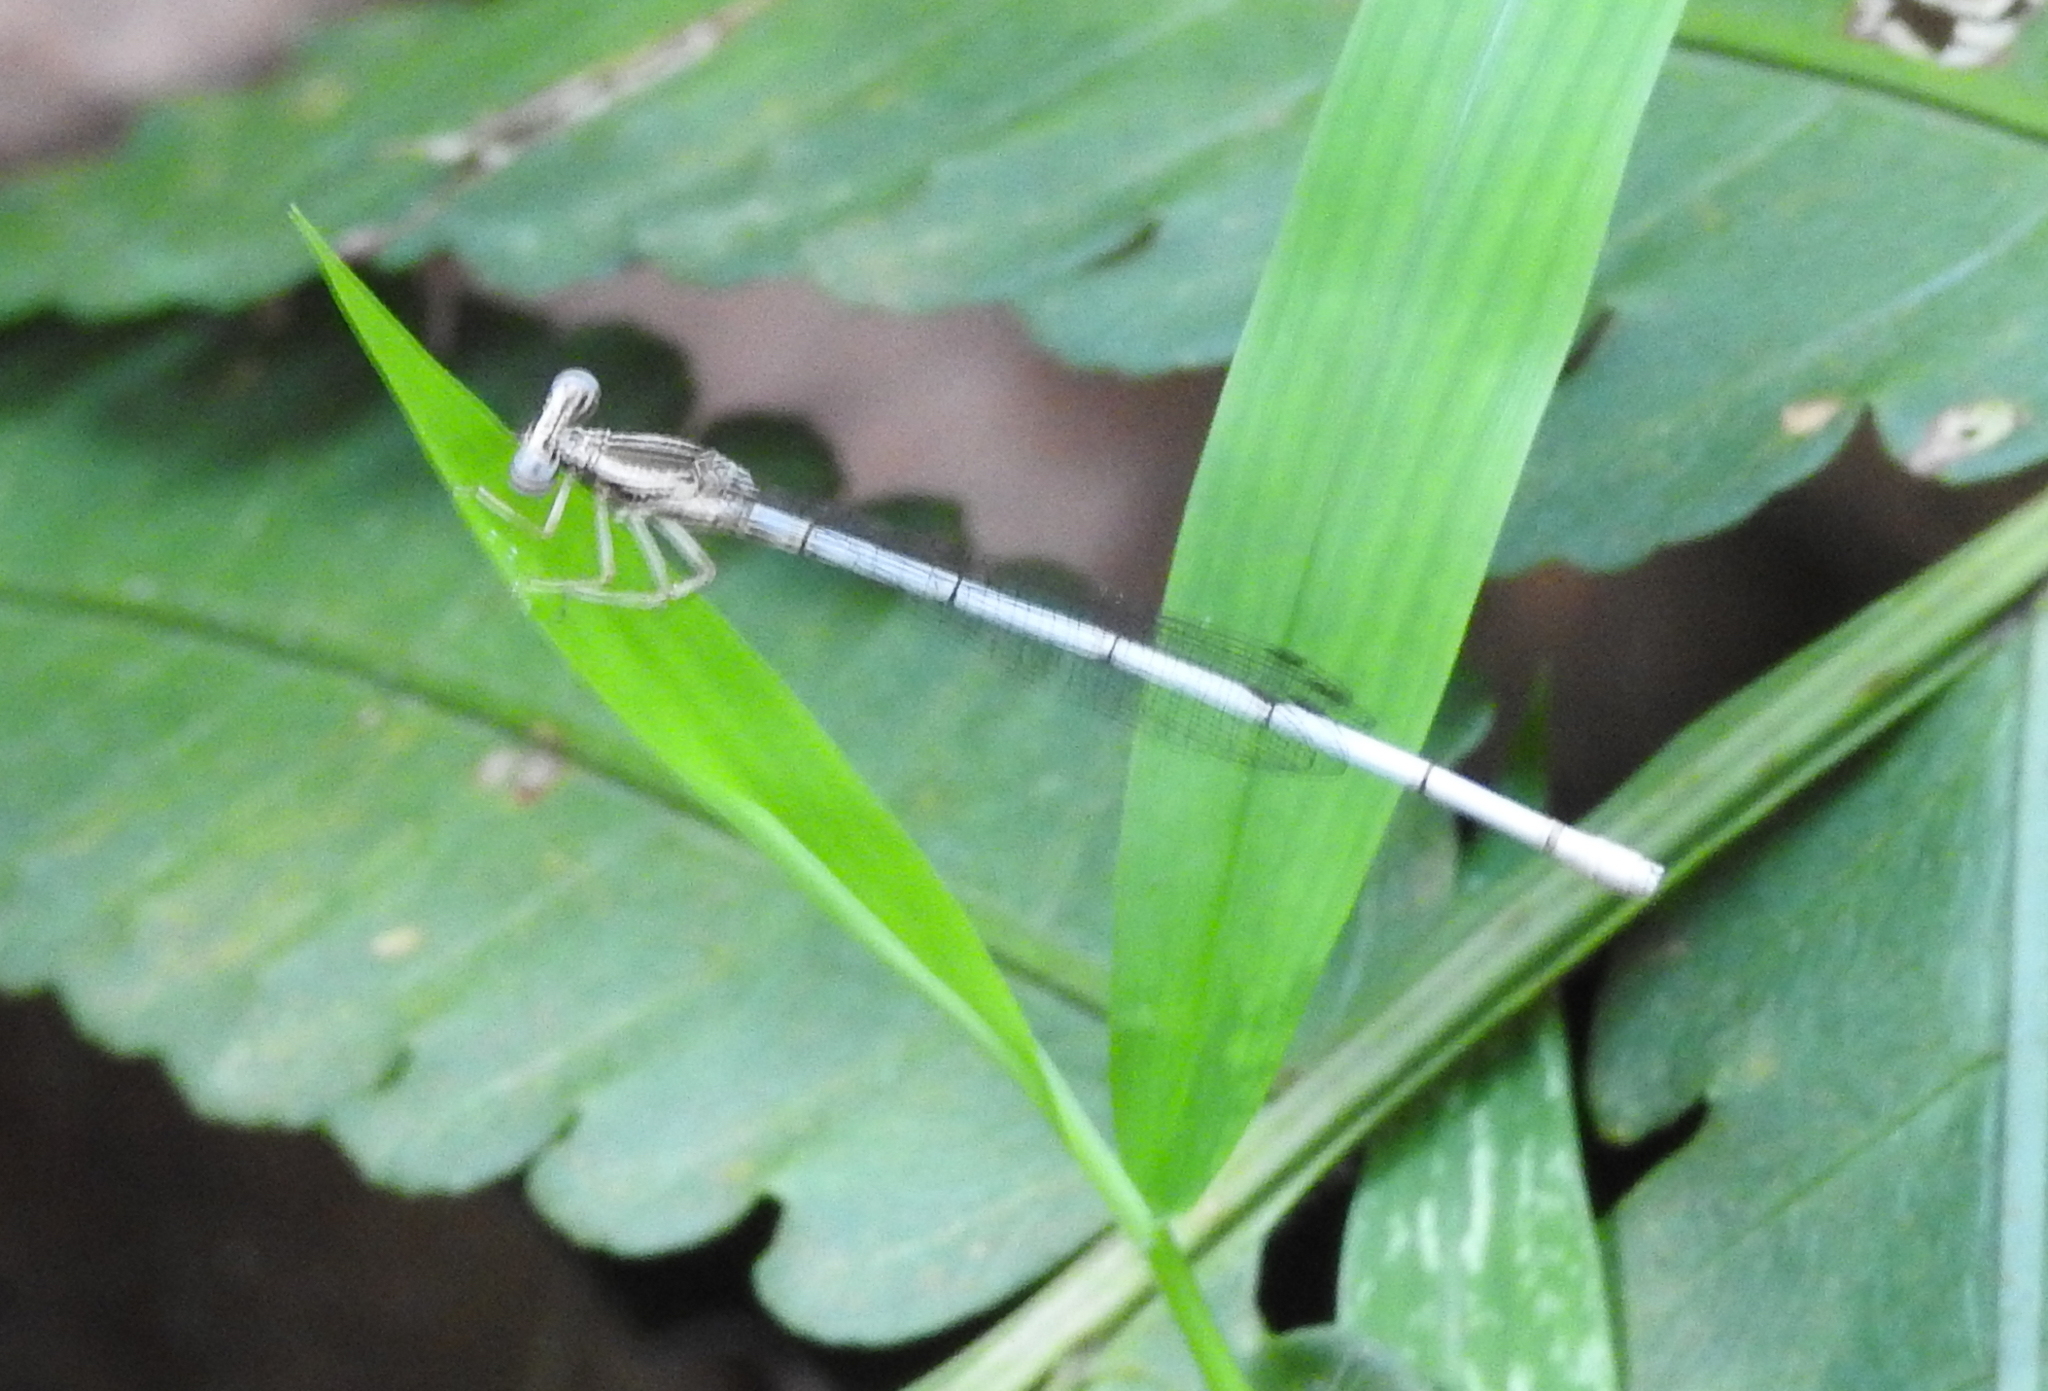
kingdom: Animalia
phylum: Arthropoda
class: Insecta
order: Odonata
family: Platycnemididae
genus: Copera
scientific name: Copera marginipes
